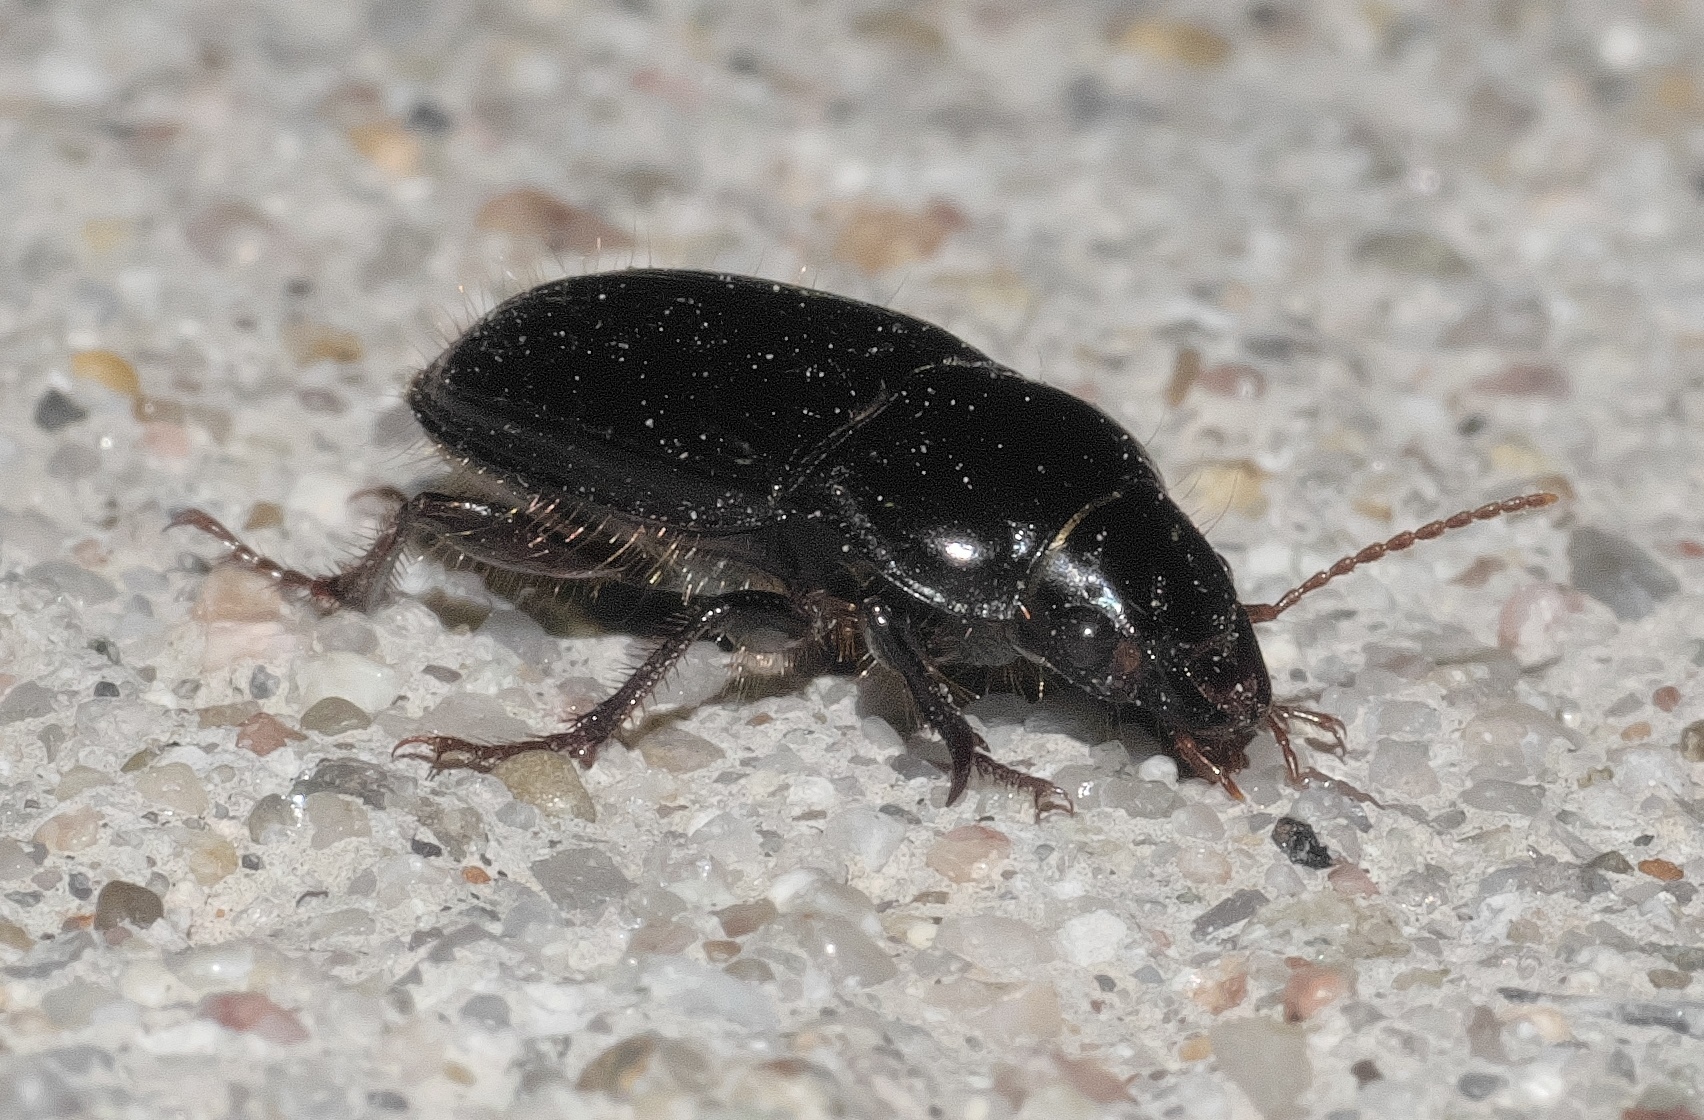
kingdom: Animalia
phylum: Arthropoda
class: Insecta
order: Coleoptera
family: Carabidae
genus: Euryderus
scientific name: Euryderus grossus
